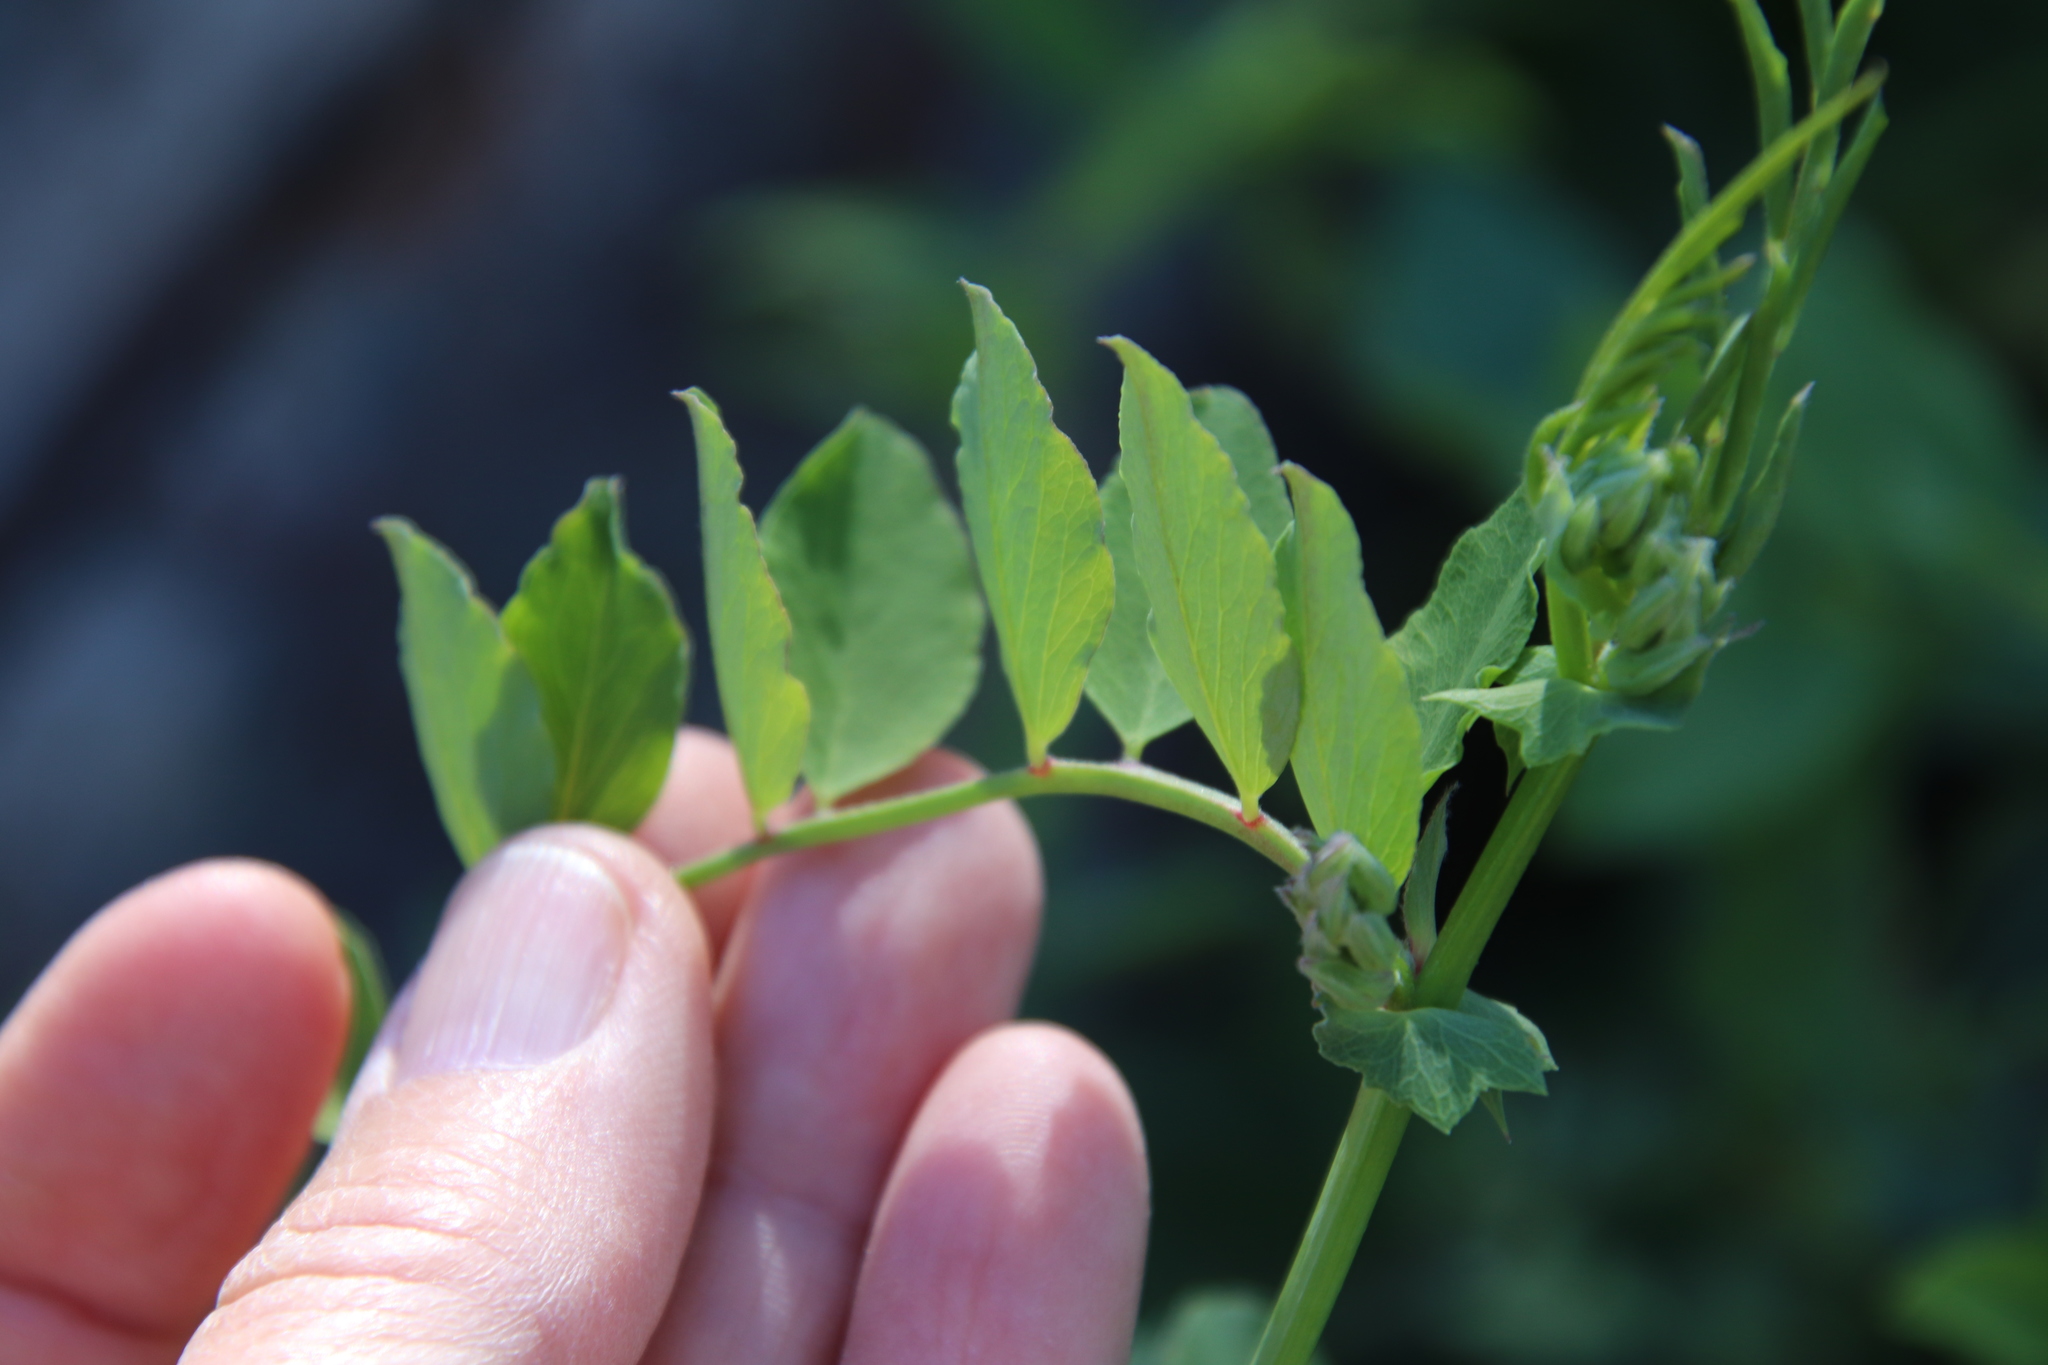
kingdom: Plantae
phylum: Tracheophyta
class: Magnoliopsida
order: Fabales
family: Fabaceae
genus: Lathyrus
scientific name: Lathyrus vestitus
